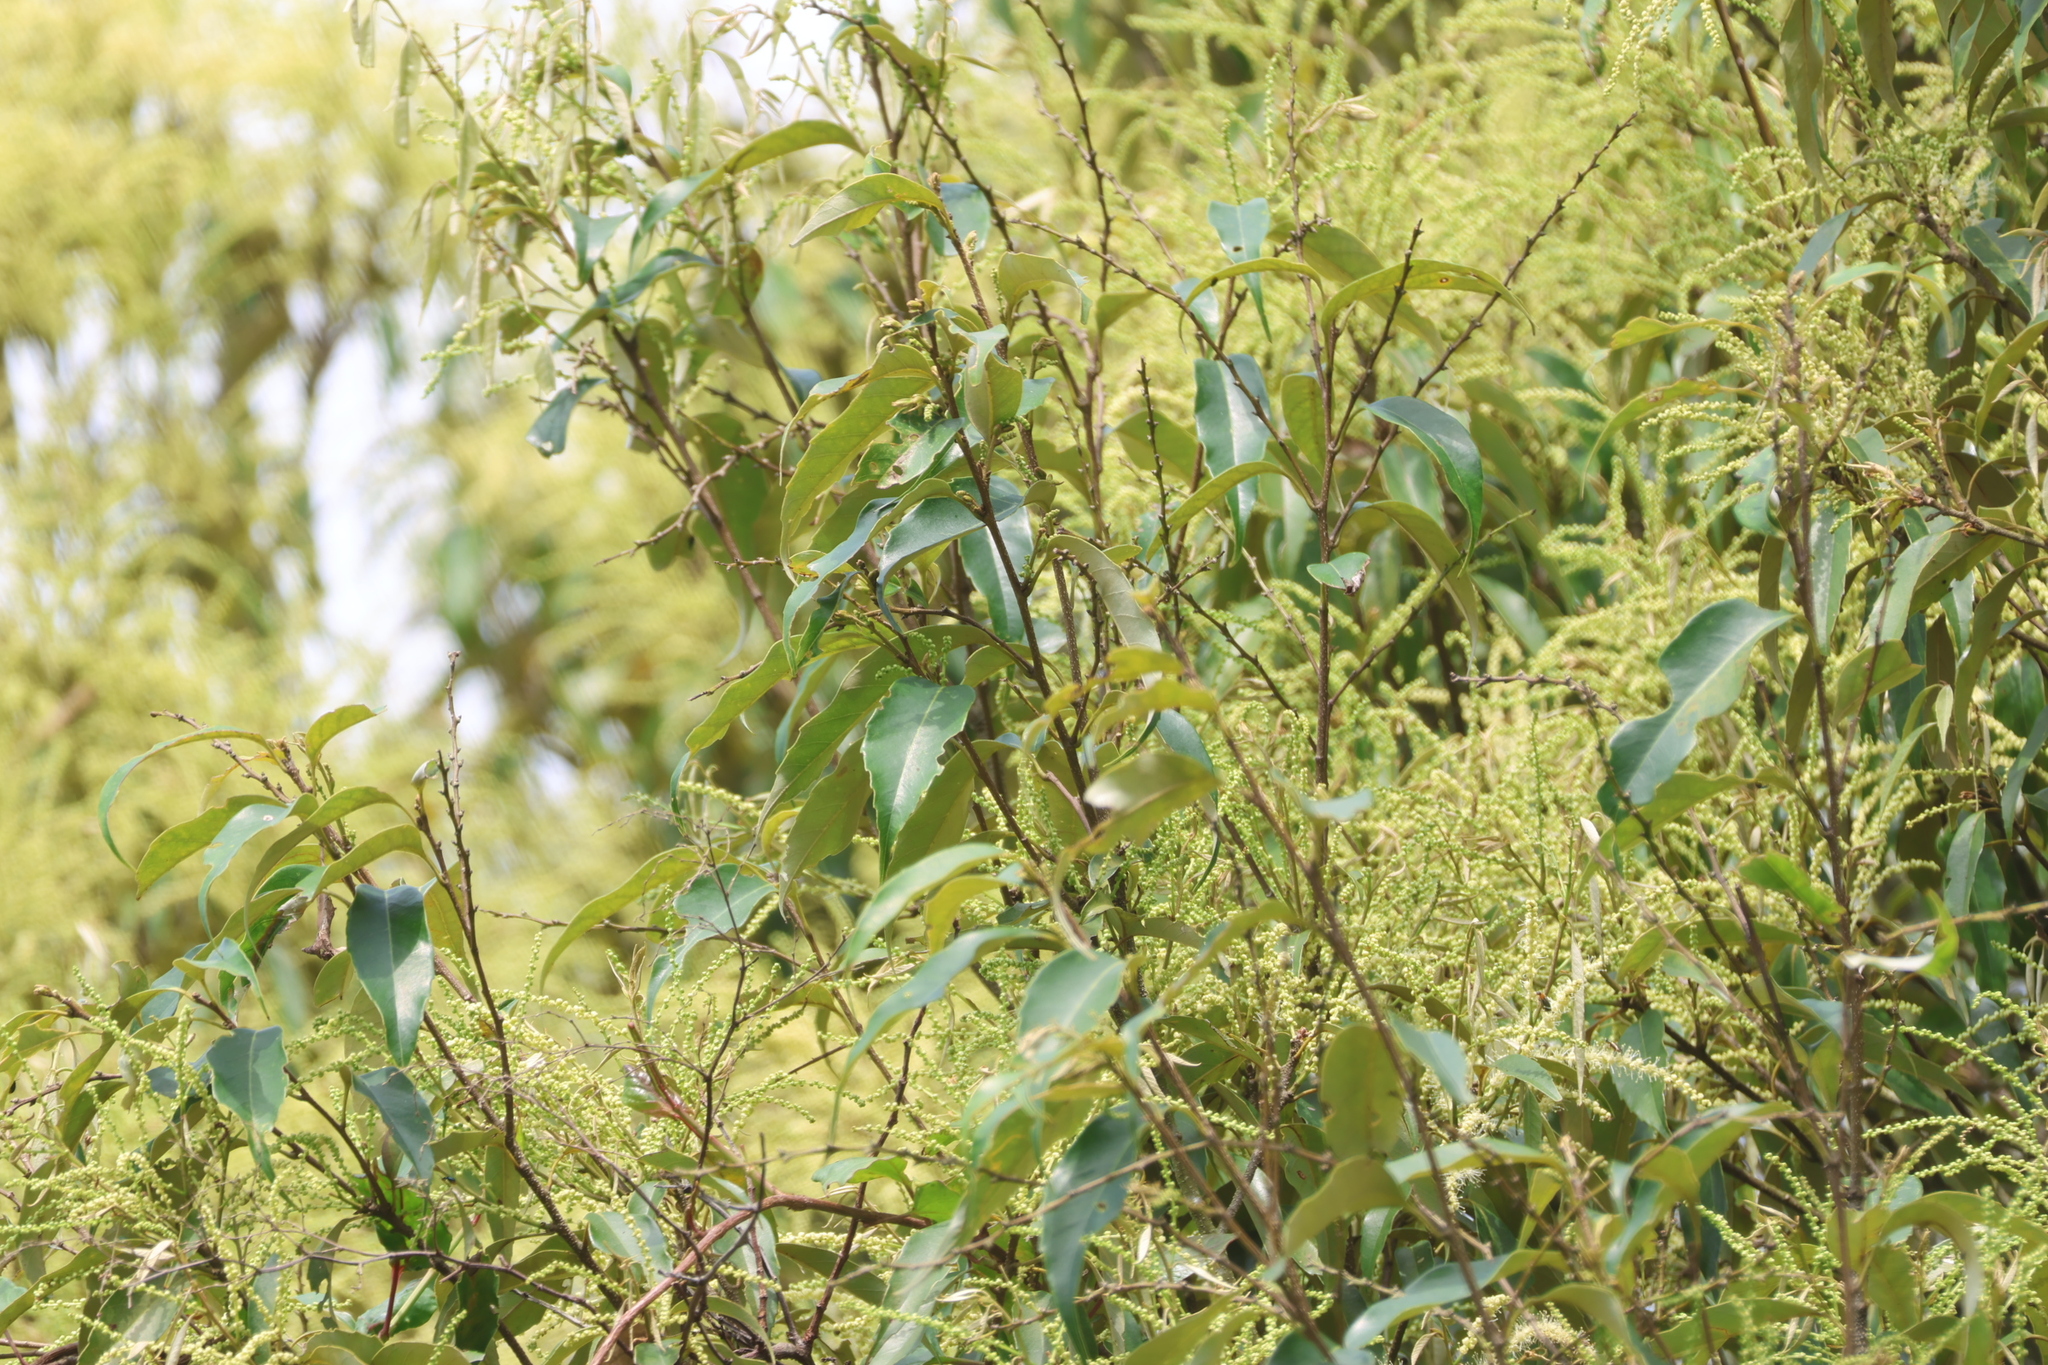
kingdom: Plantae
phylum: Tracheophyta
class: Magnoliopsida
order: Fagales
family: Fagaceae
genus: Castanopsis
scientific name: Castanopsis carlesii
